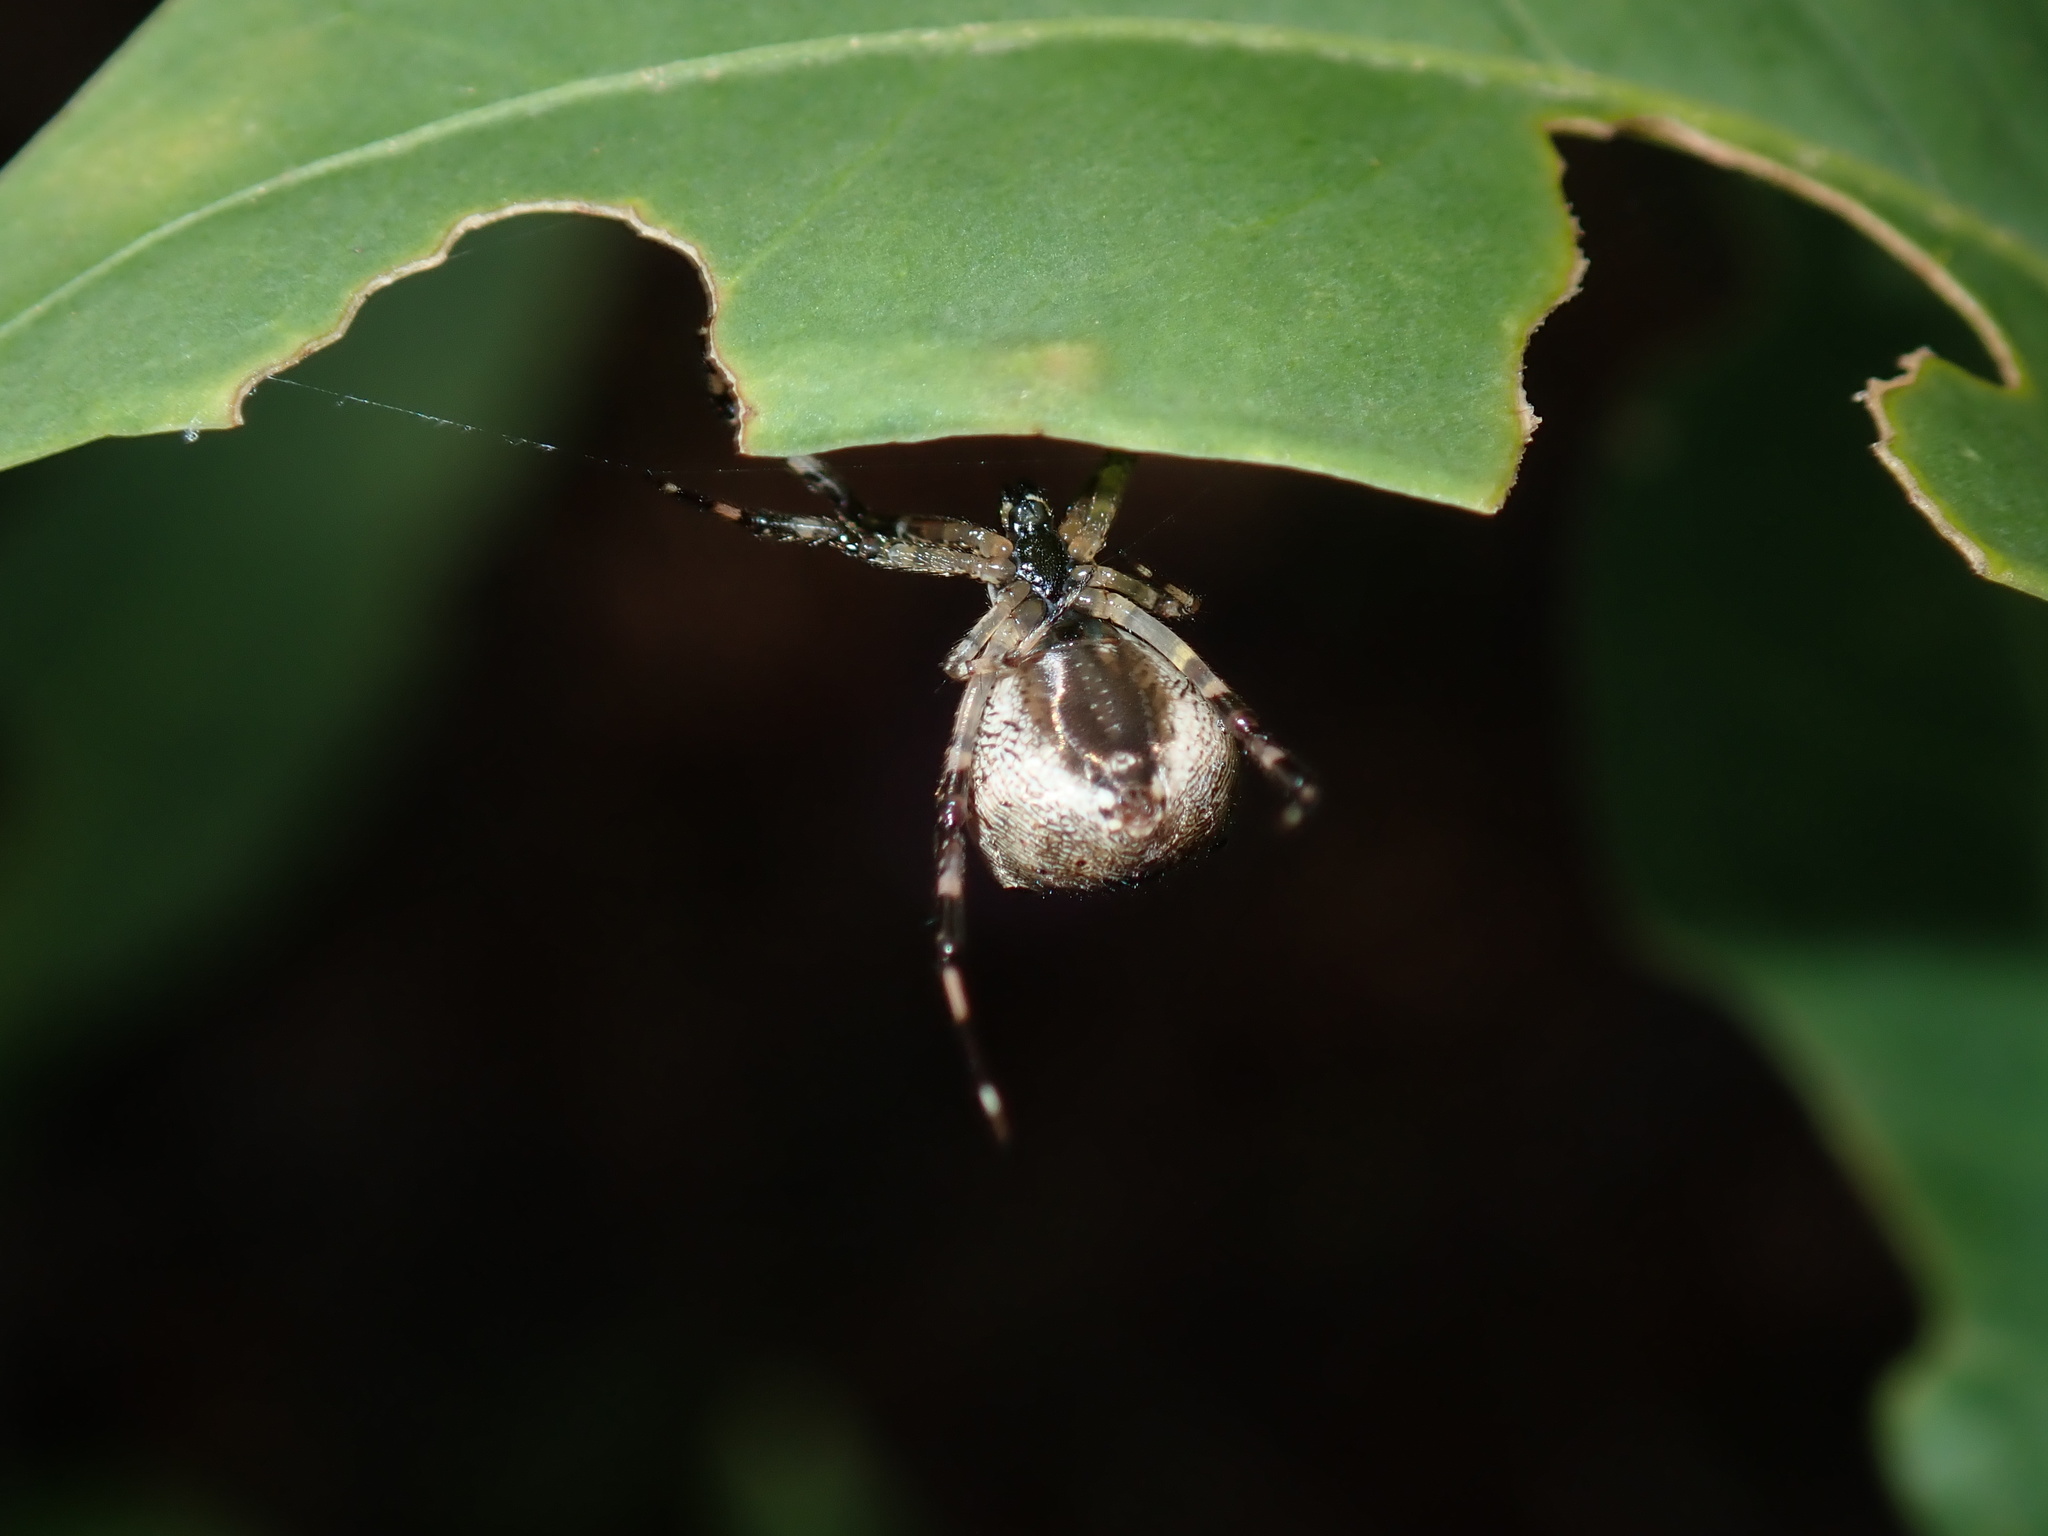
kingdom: Animalia
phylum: Arthropoda
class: Arachnida
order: Araneae
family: Theridiidae
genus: Janula
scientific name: Janula bicornis
